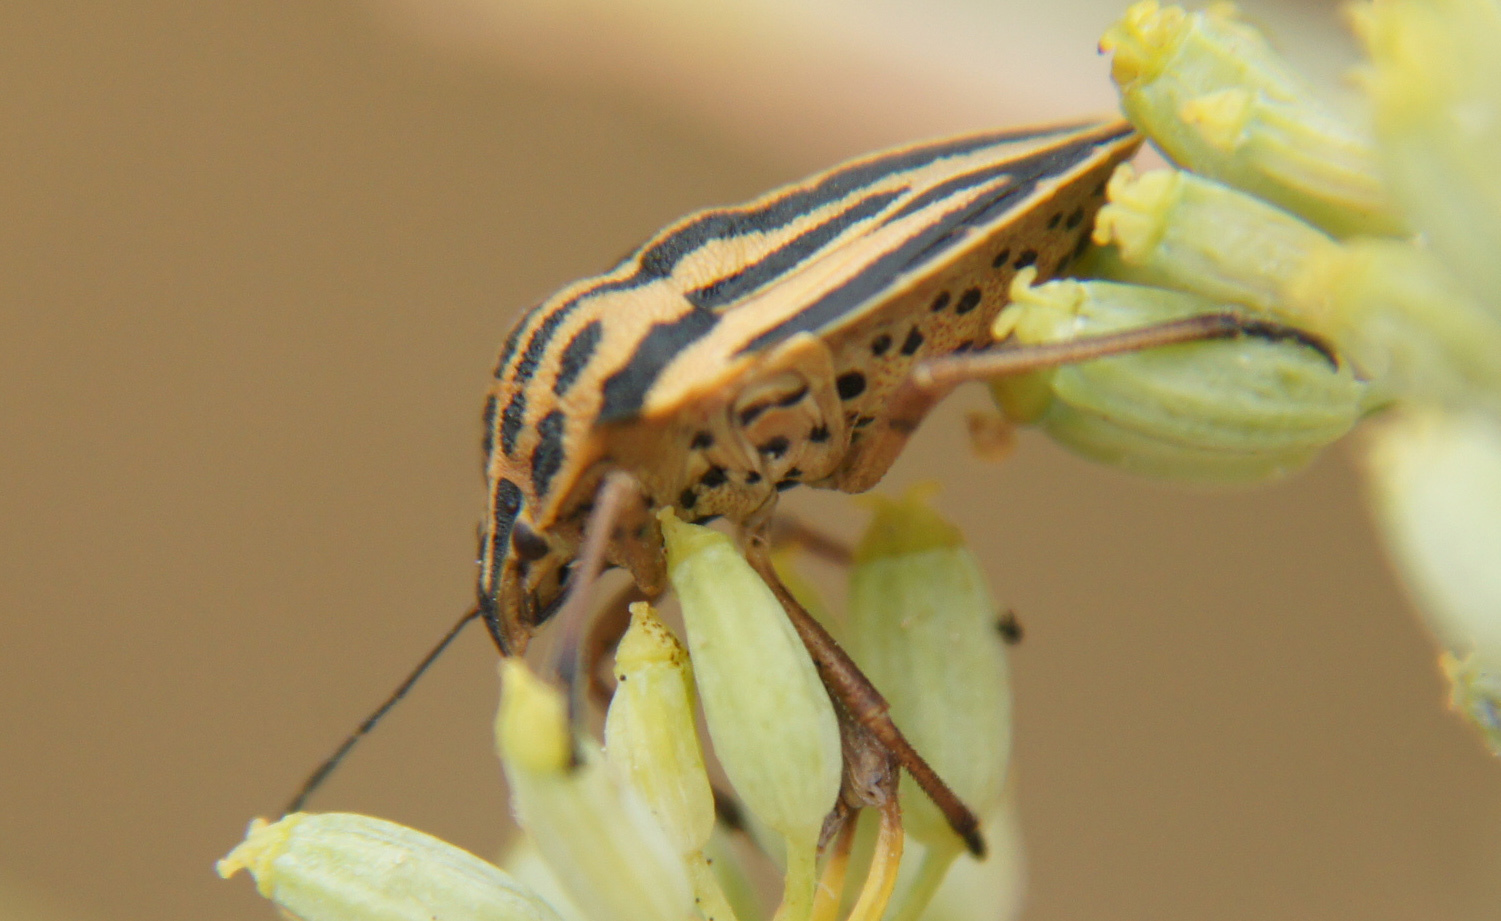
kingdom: Animalia
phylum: Arthropoda
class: Insecta
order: Hemiptera
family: Pentatomidae
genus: Graphosoma
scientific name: Graphosoma interruptum
